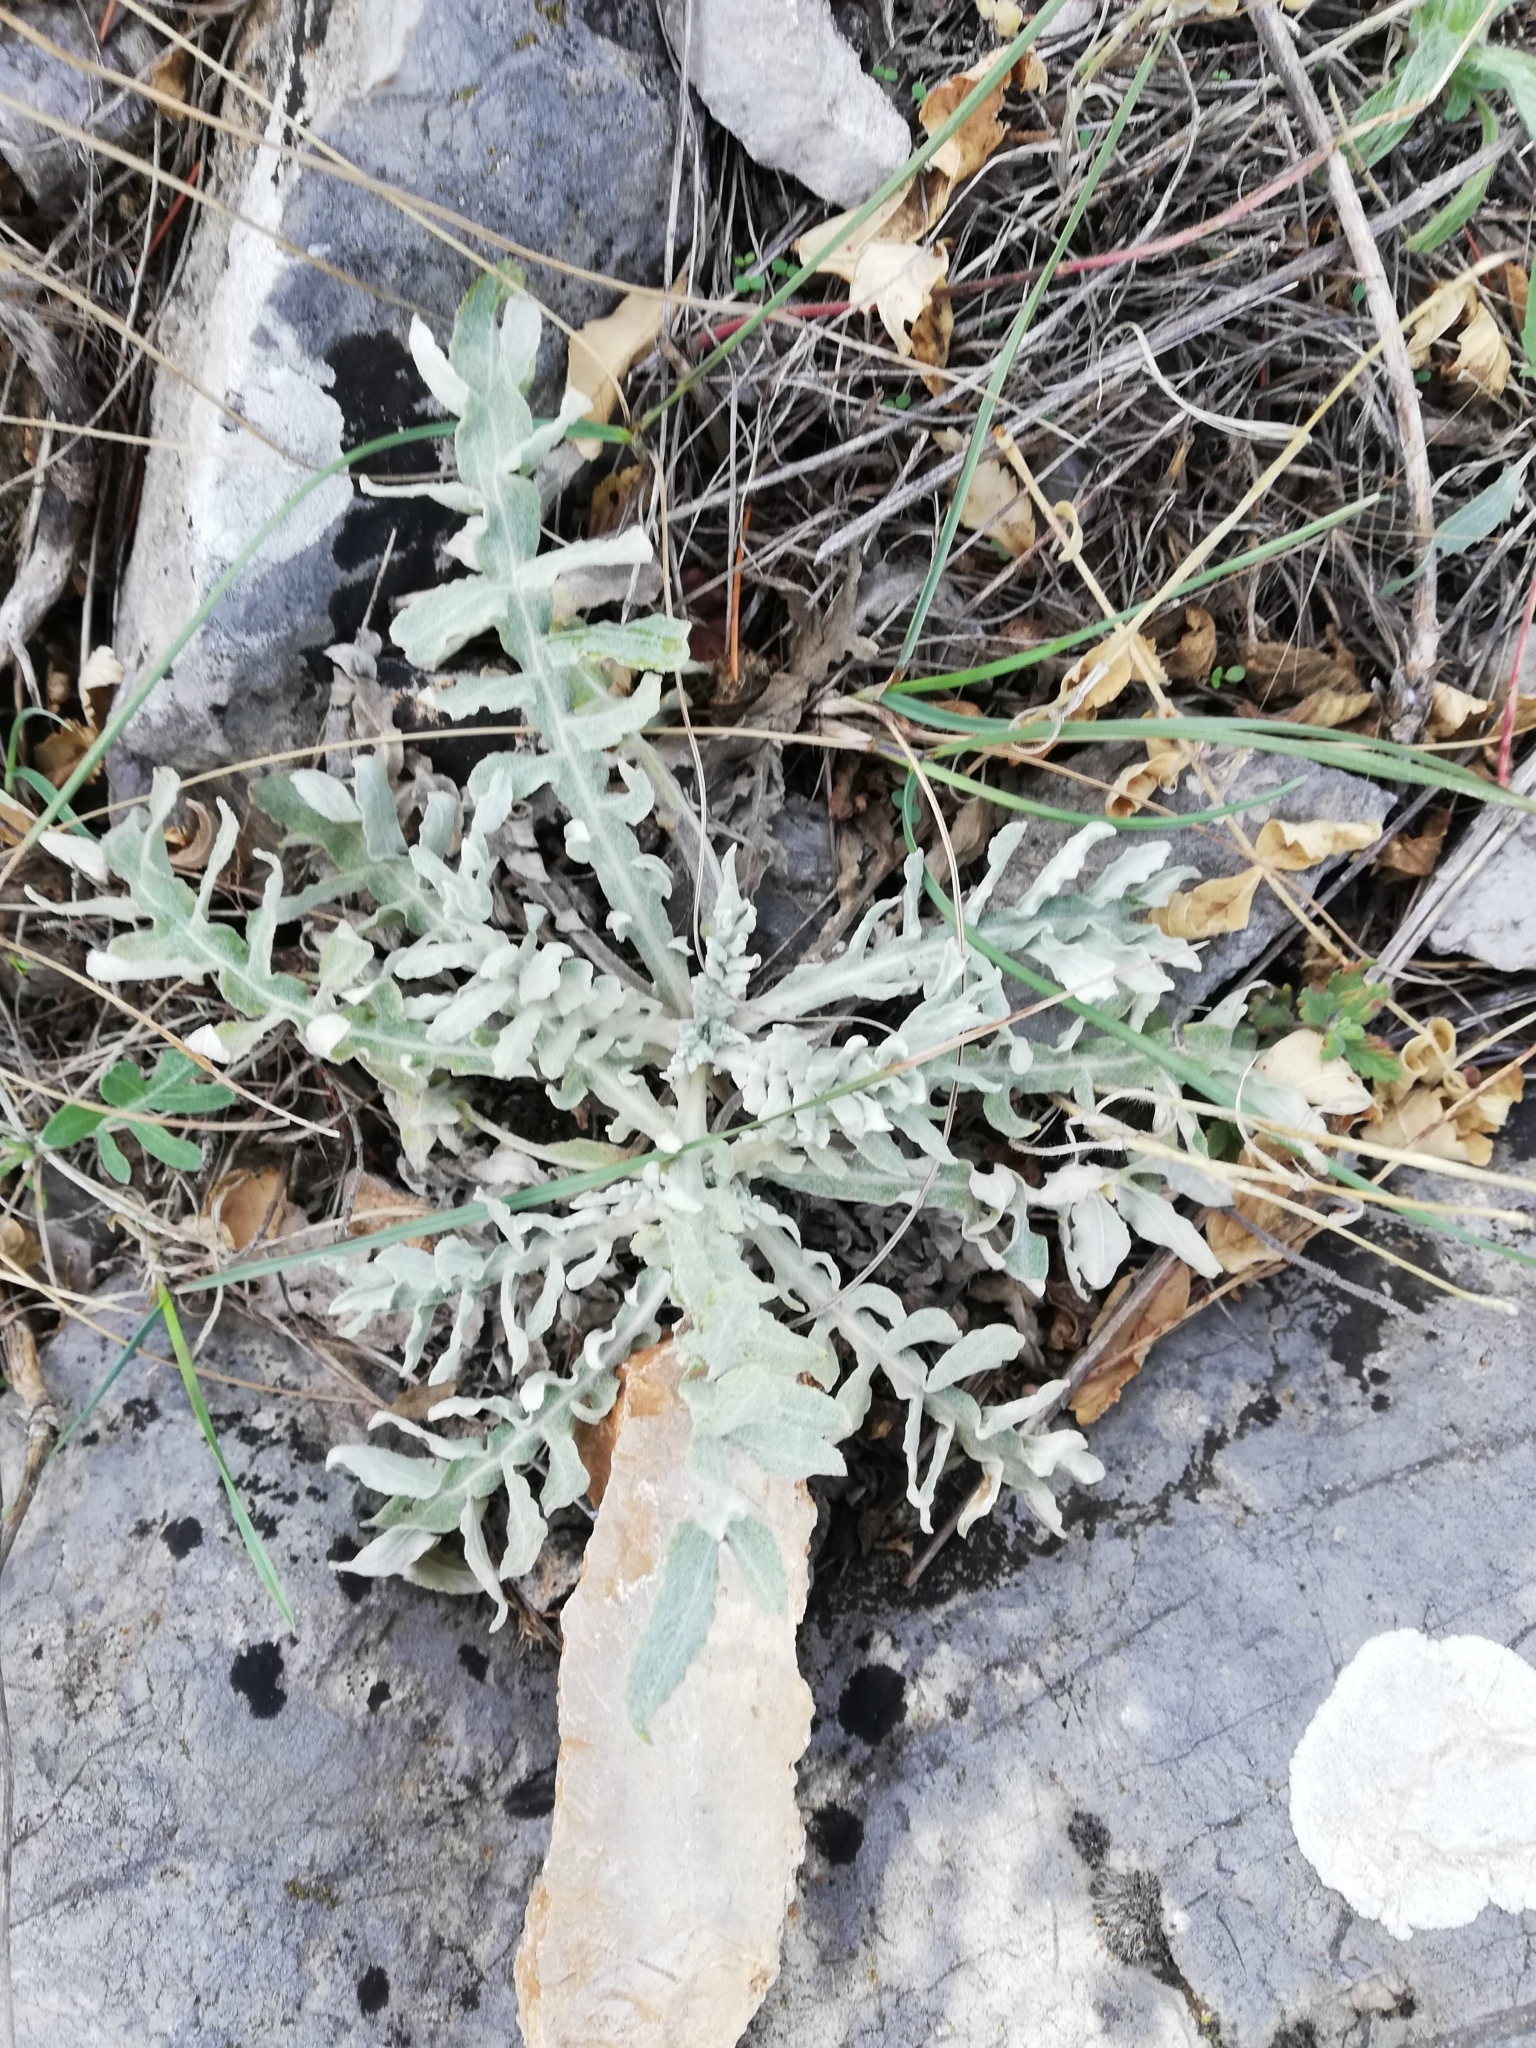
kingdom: Plantae
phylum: Tracheophyta
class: Magnoliopsida
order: Asterales
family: Asteraceae
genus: Jurinea
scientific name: Jurinea roegneri
